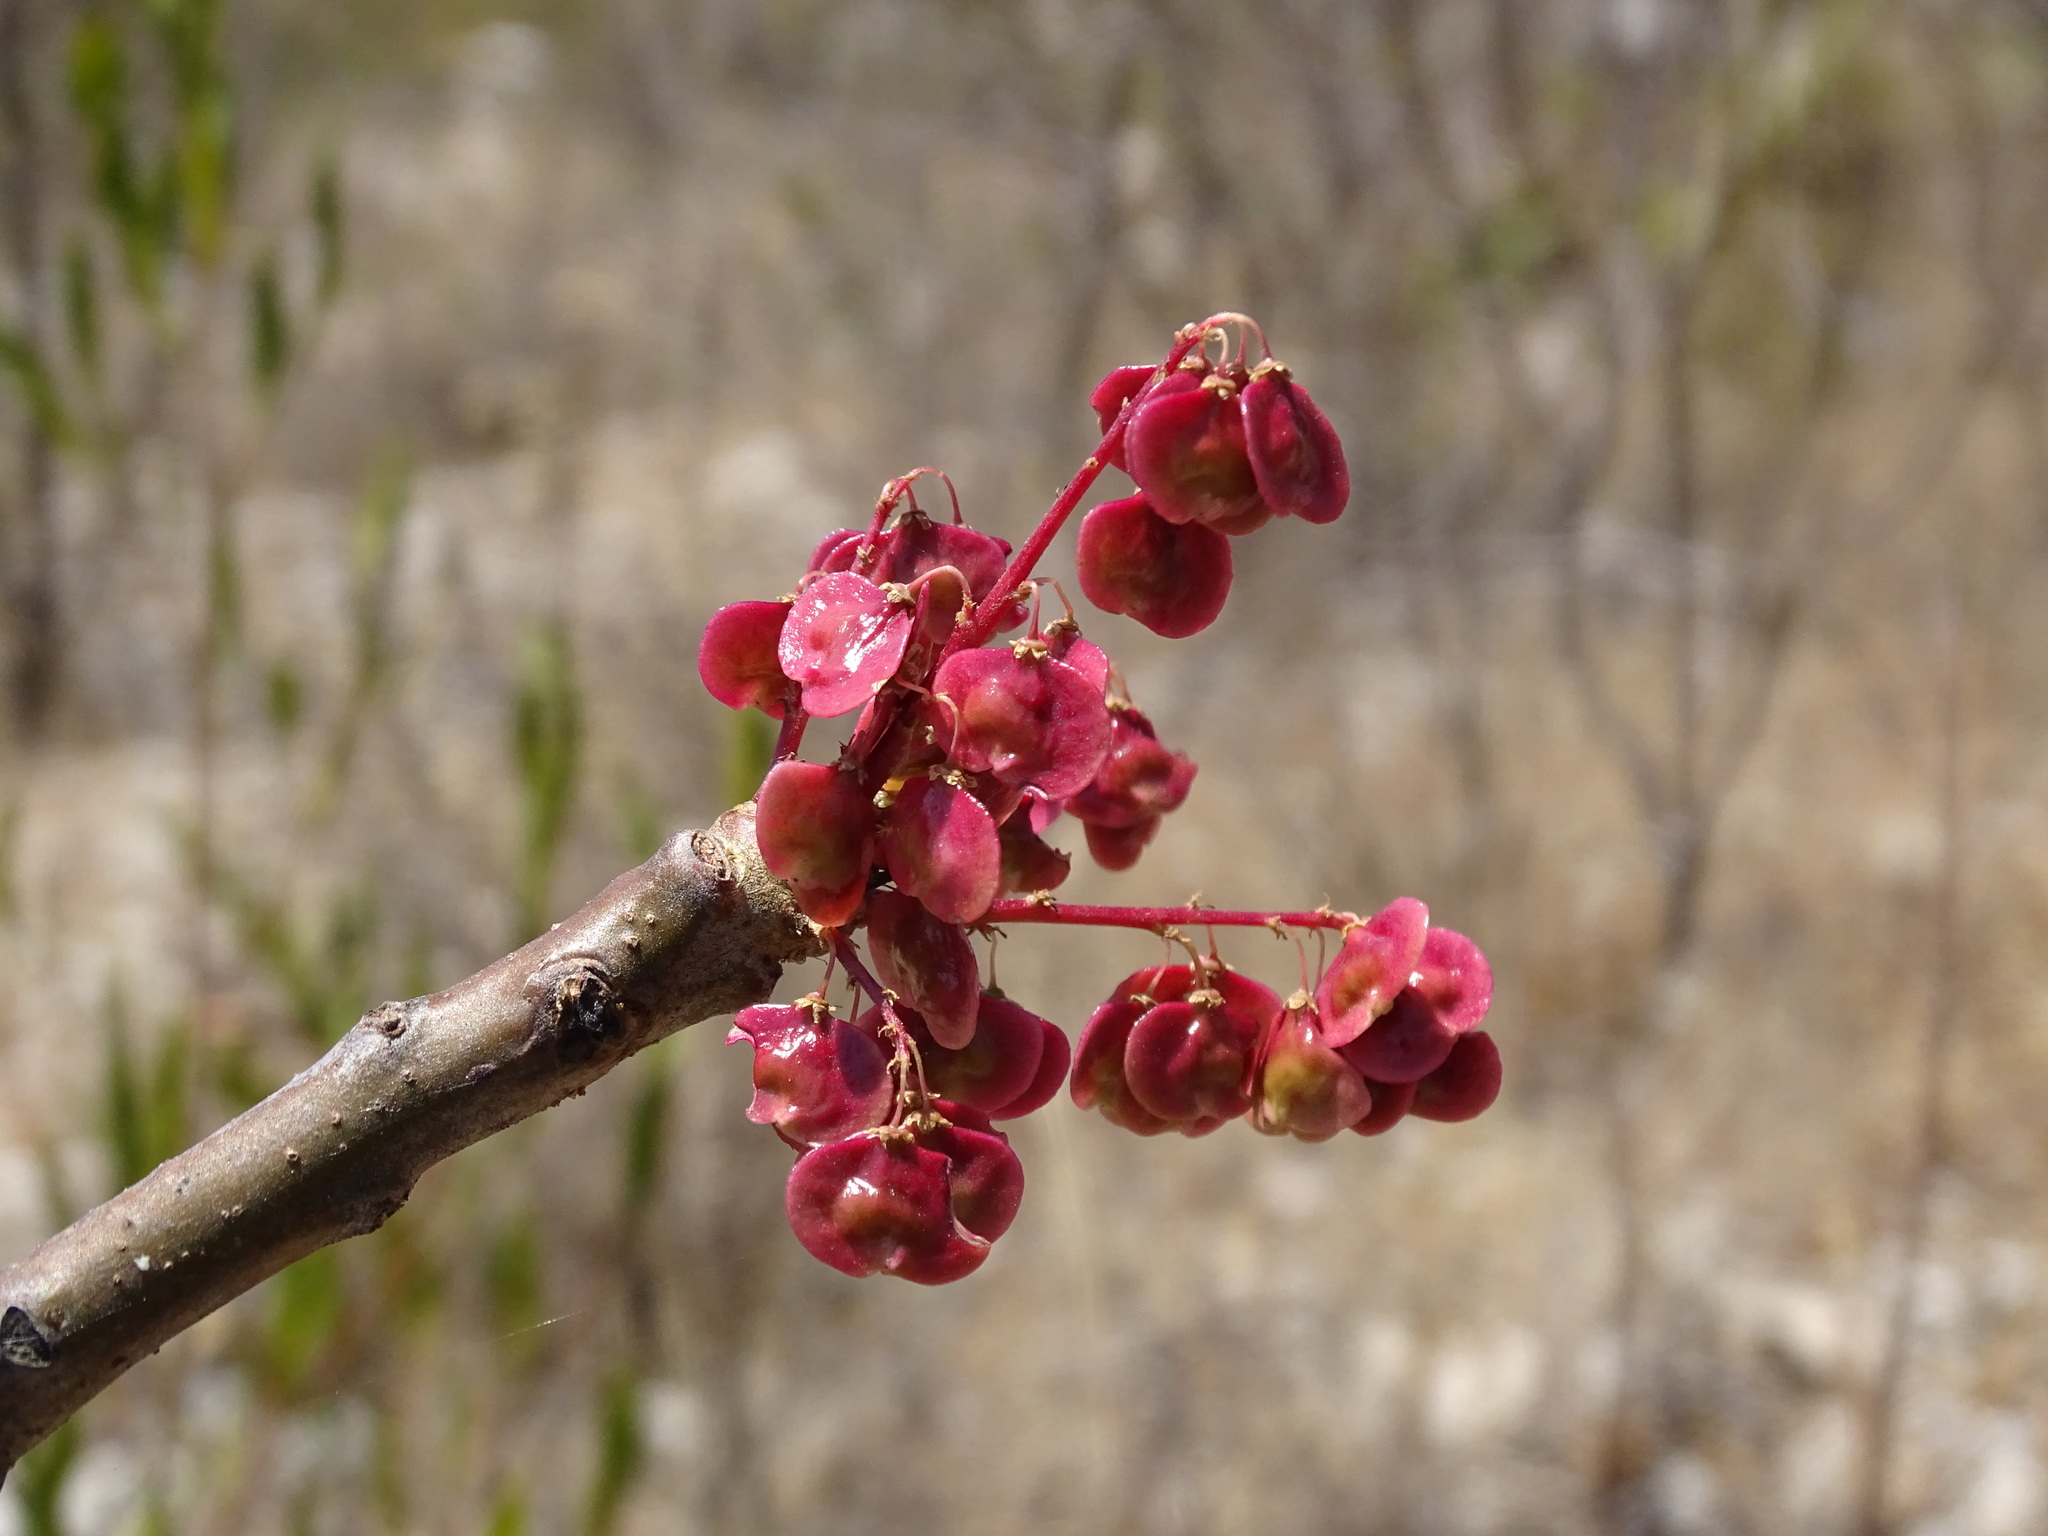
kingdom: Plantae
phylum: Tracheophyta
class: Magnoliopsida
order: Sapindales
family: Anacardiaceae
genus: Pseudosmodingium
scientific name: Pseudosmodingium andrieuxii
